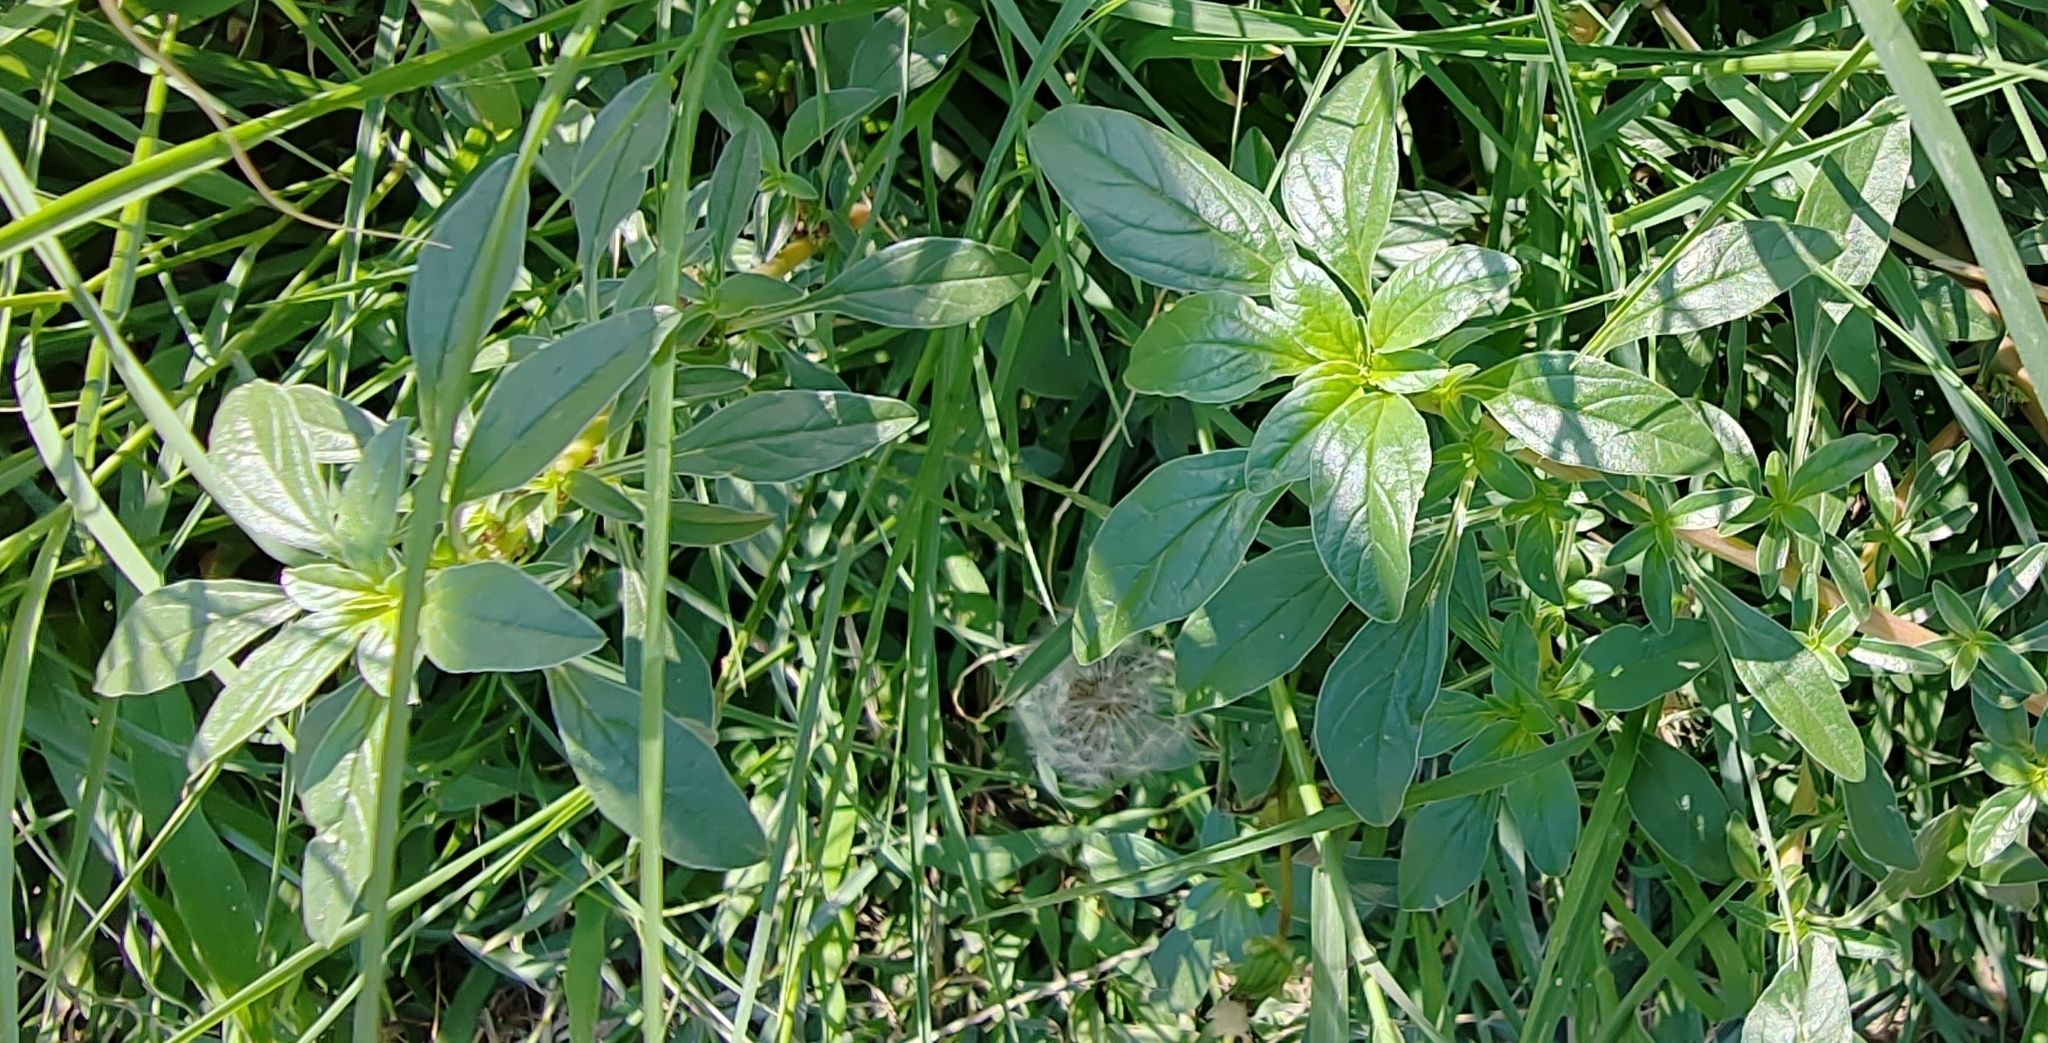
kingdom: Plantae
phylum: Tracheophyta
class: Magnoliopsida
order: Caryophyllales
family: Amaranthaceae
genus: Amaranthus
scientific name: Amaranthus retroflexus
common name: Redroot amaranth
